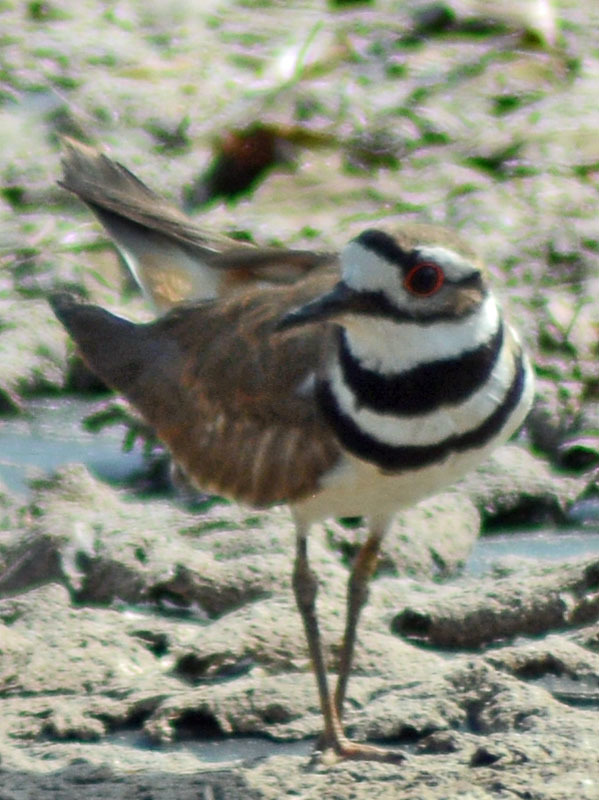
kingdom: Animalia
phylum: Chordata
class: Aves
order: Charadriiformes
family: Charadriidae
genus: Charadrius
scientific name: Charadrius vociferus
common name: Killdeer
